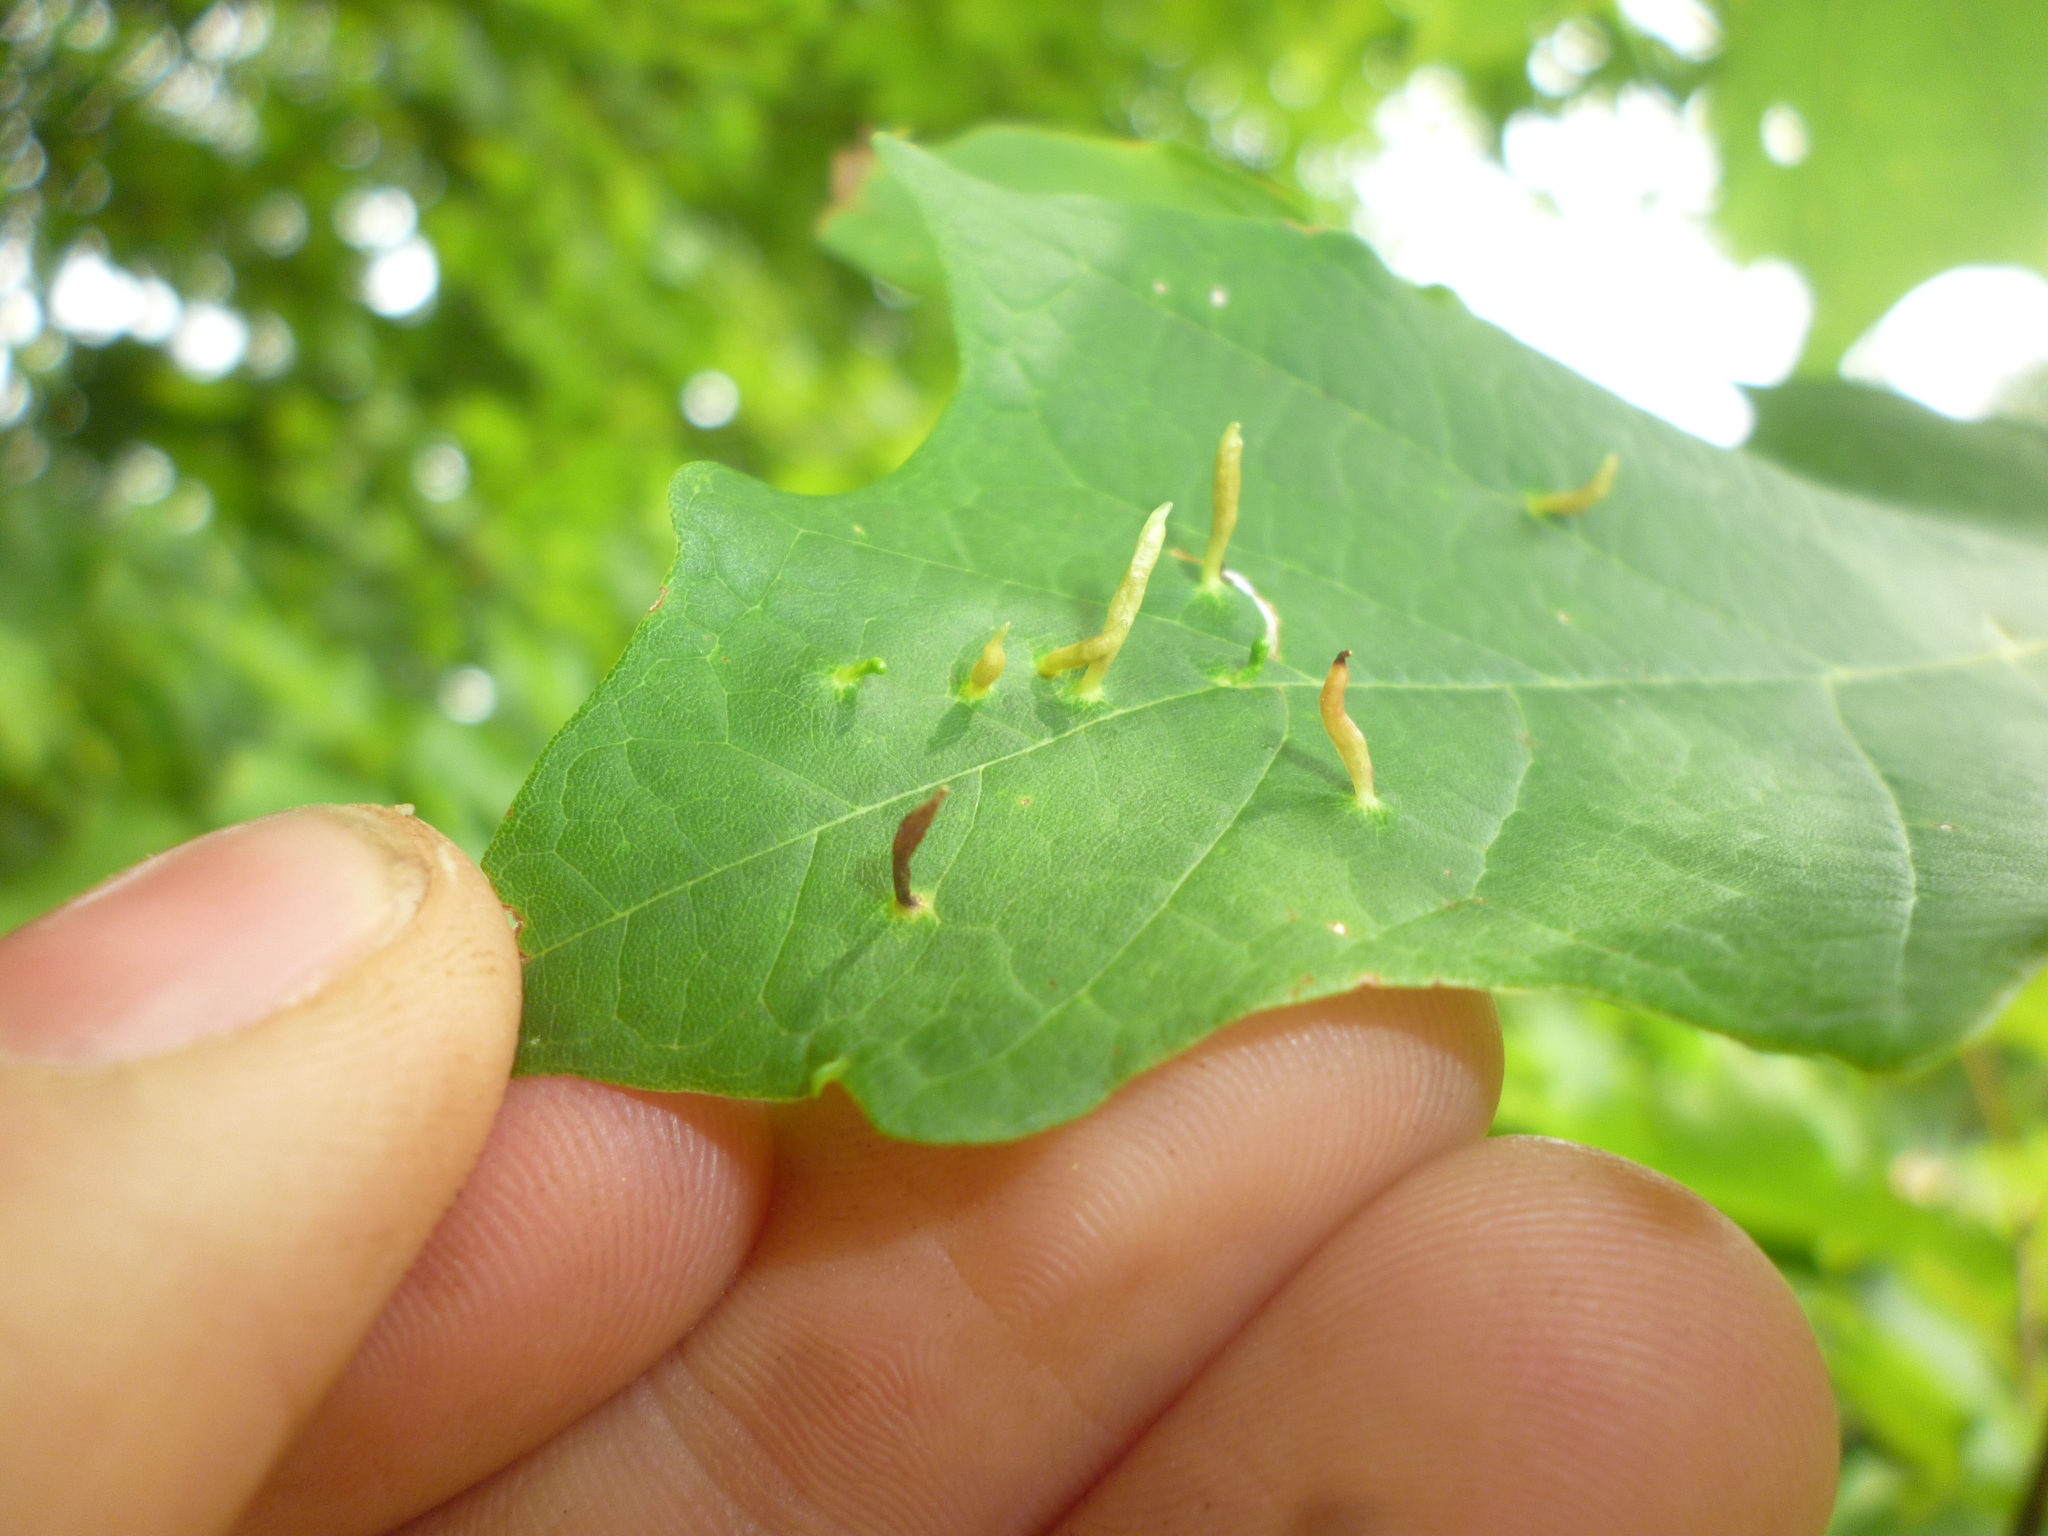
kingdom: Animalia
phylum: Arthropoda
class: Arachnida
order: Trombidiformes
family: Eriophyidae
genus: Vasates
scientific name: Vasates aceriscrumena
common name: Maple spindle gall mite
